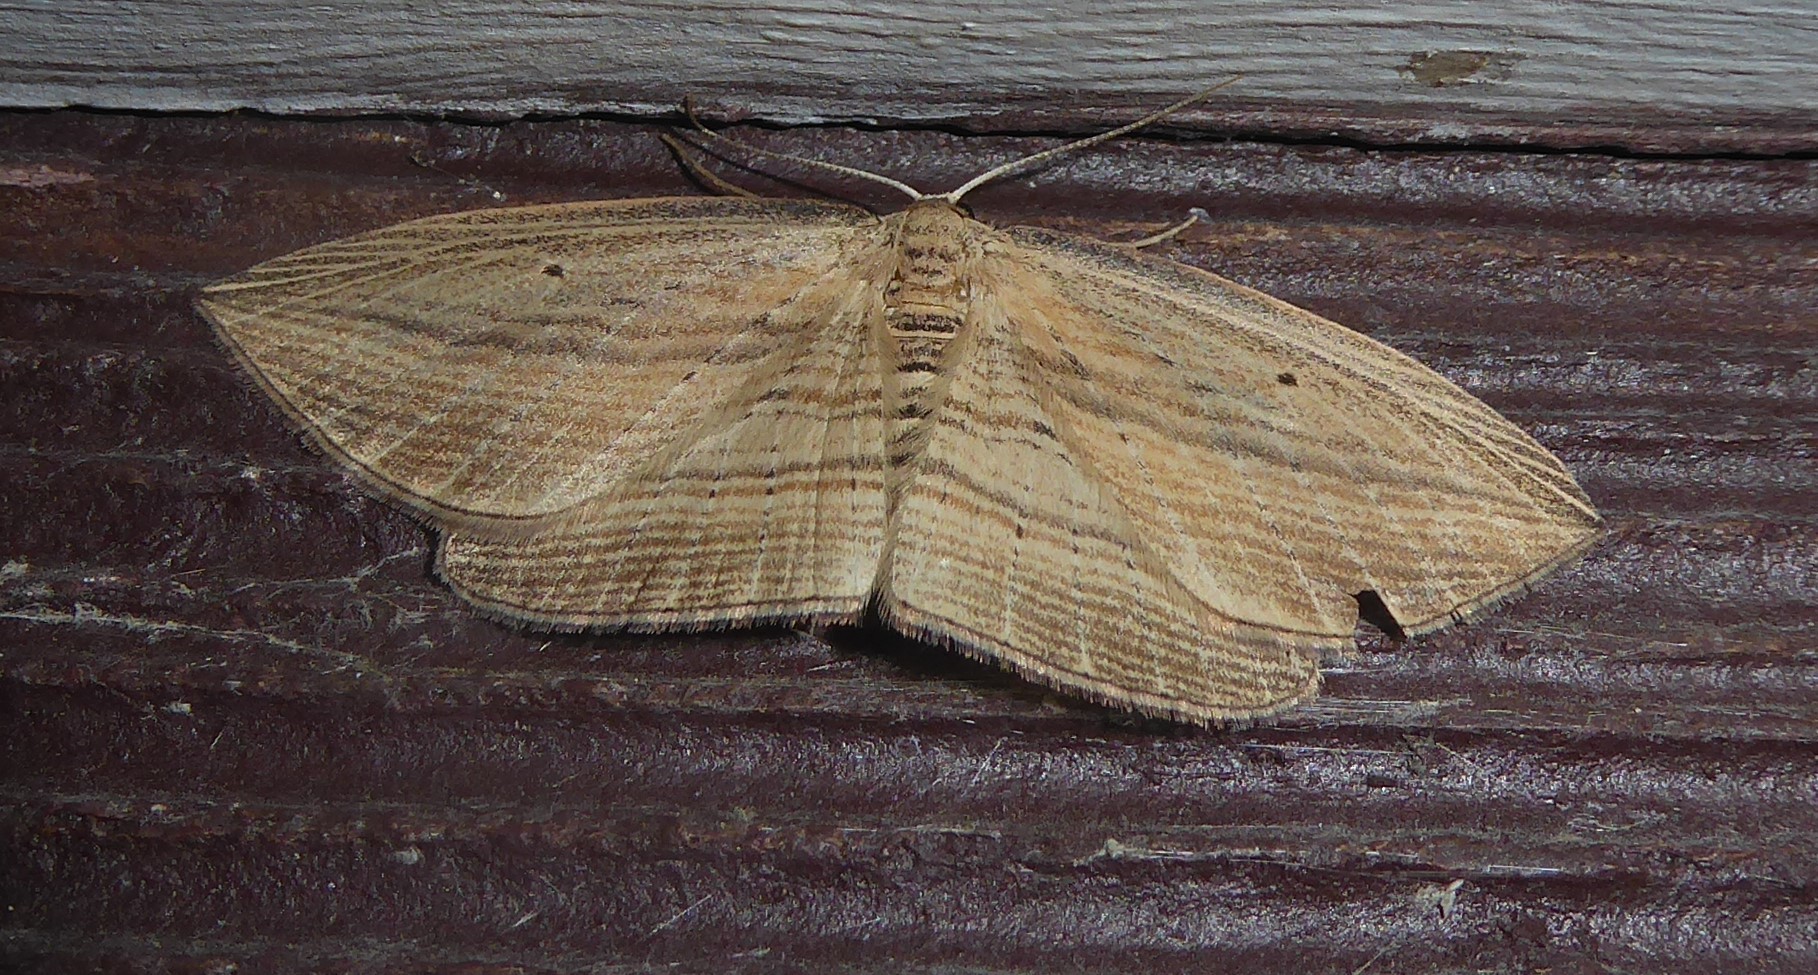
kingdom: Animalia
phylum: Arthropoda
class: Insecta
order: Lepidoptera
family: Geometridae
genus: Epiphryne
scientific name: Epiphryne verriculata
